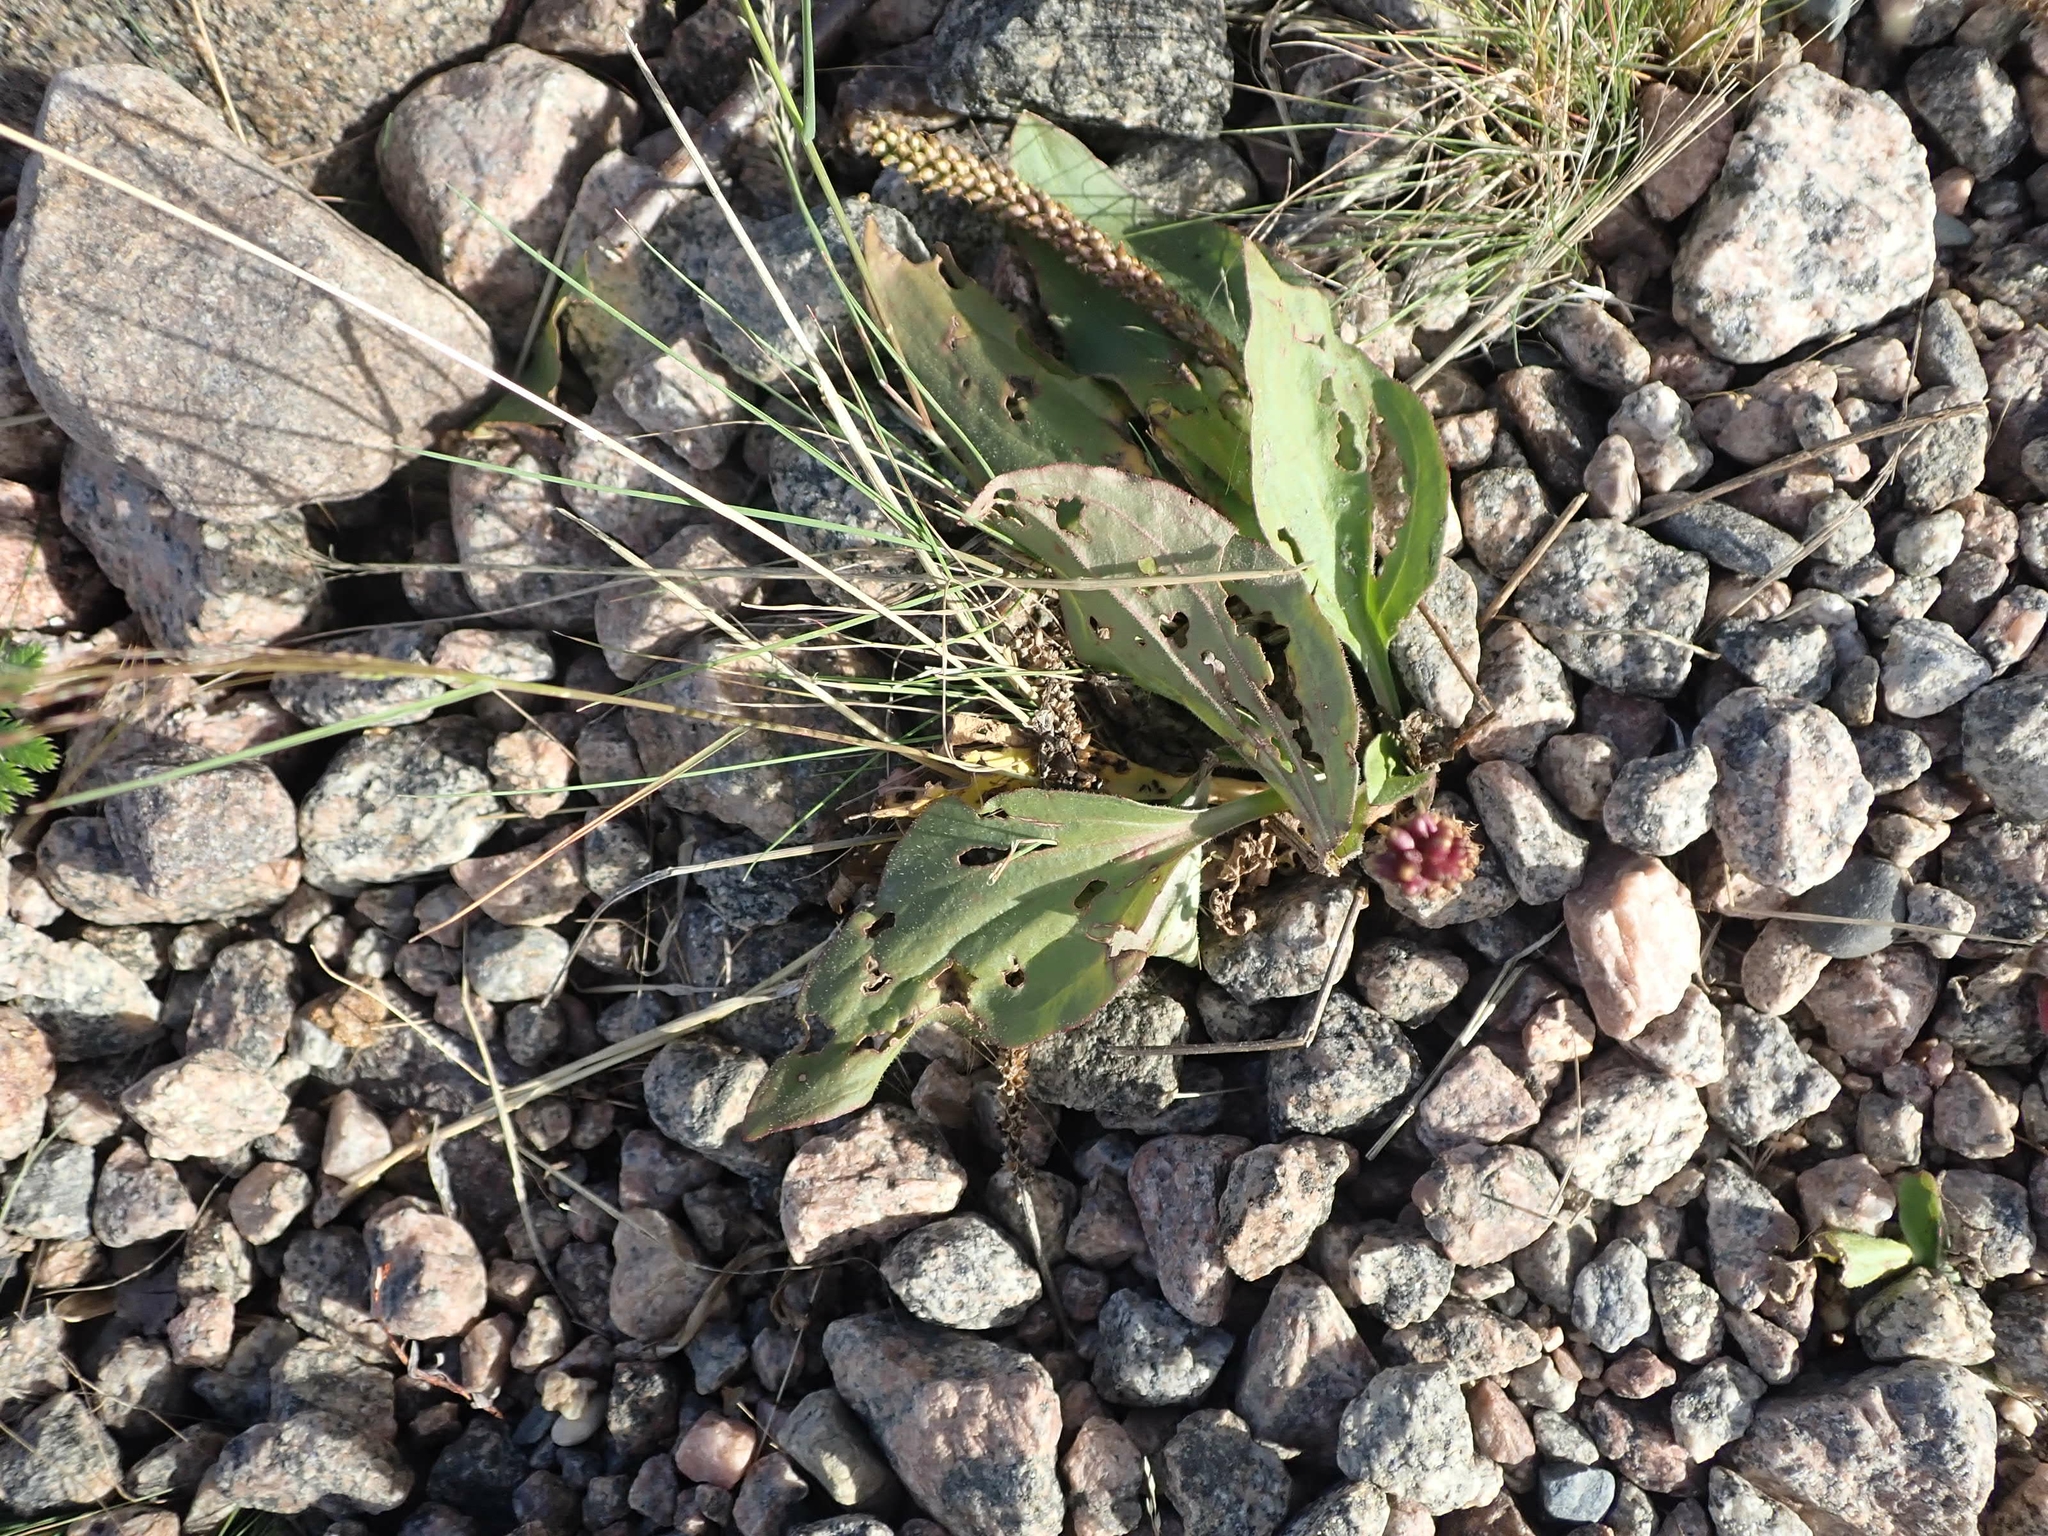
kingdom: Plantae
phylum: Tracheophyta
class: Magnoliopsida
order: Lamiales
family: Plantaginaceae
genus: Plantago
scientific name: Plantago major
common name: Common plantain
